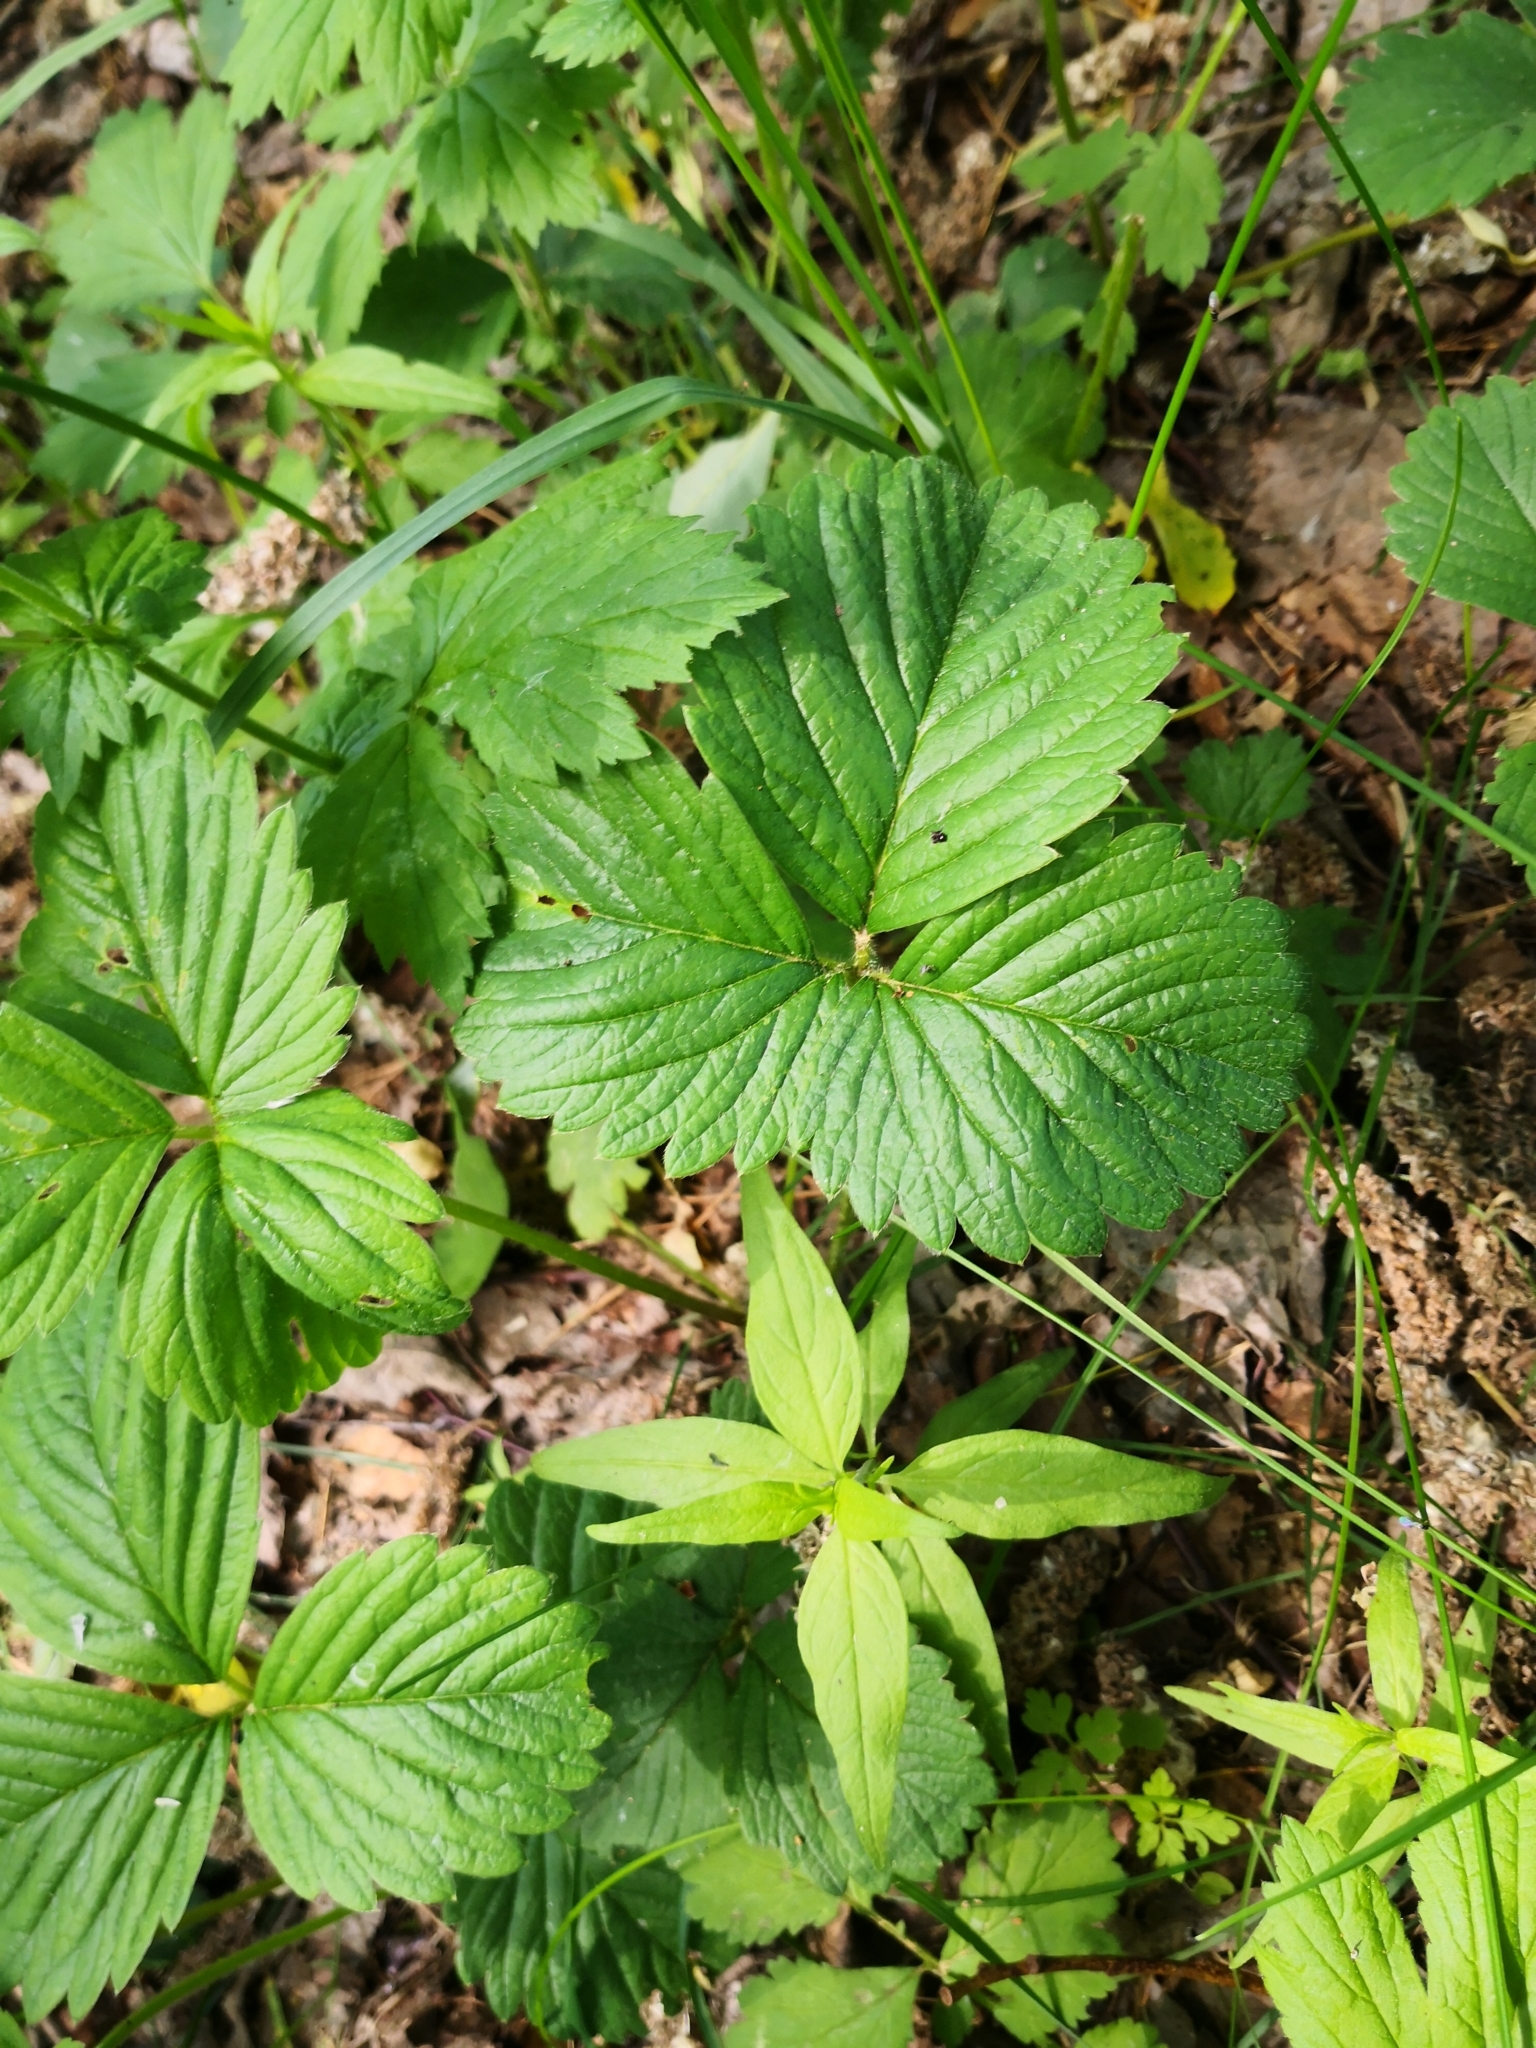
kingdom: Plantae
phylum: Tracheophyta
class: Magnoliopsida
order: Rosales
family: Rosaceae
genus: Fragaria
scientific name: Fragaria ananassa
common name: Garden strawberry
